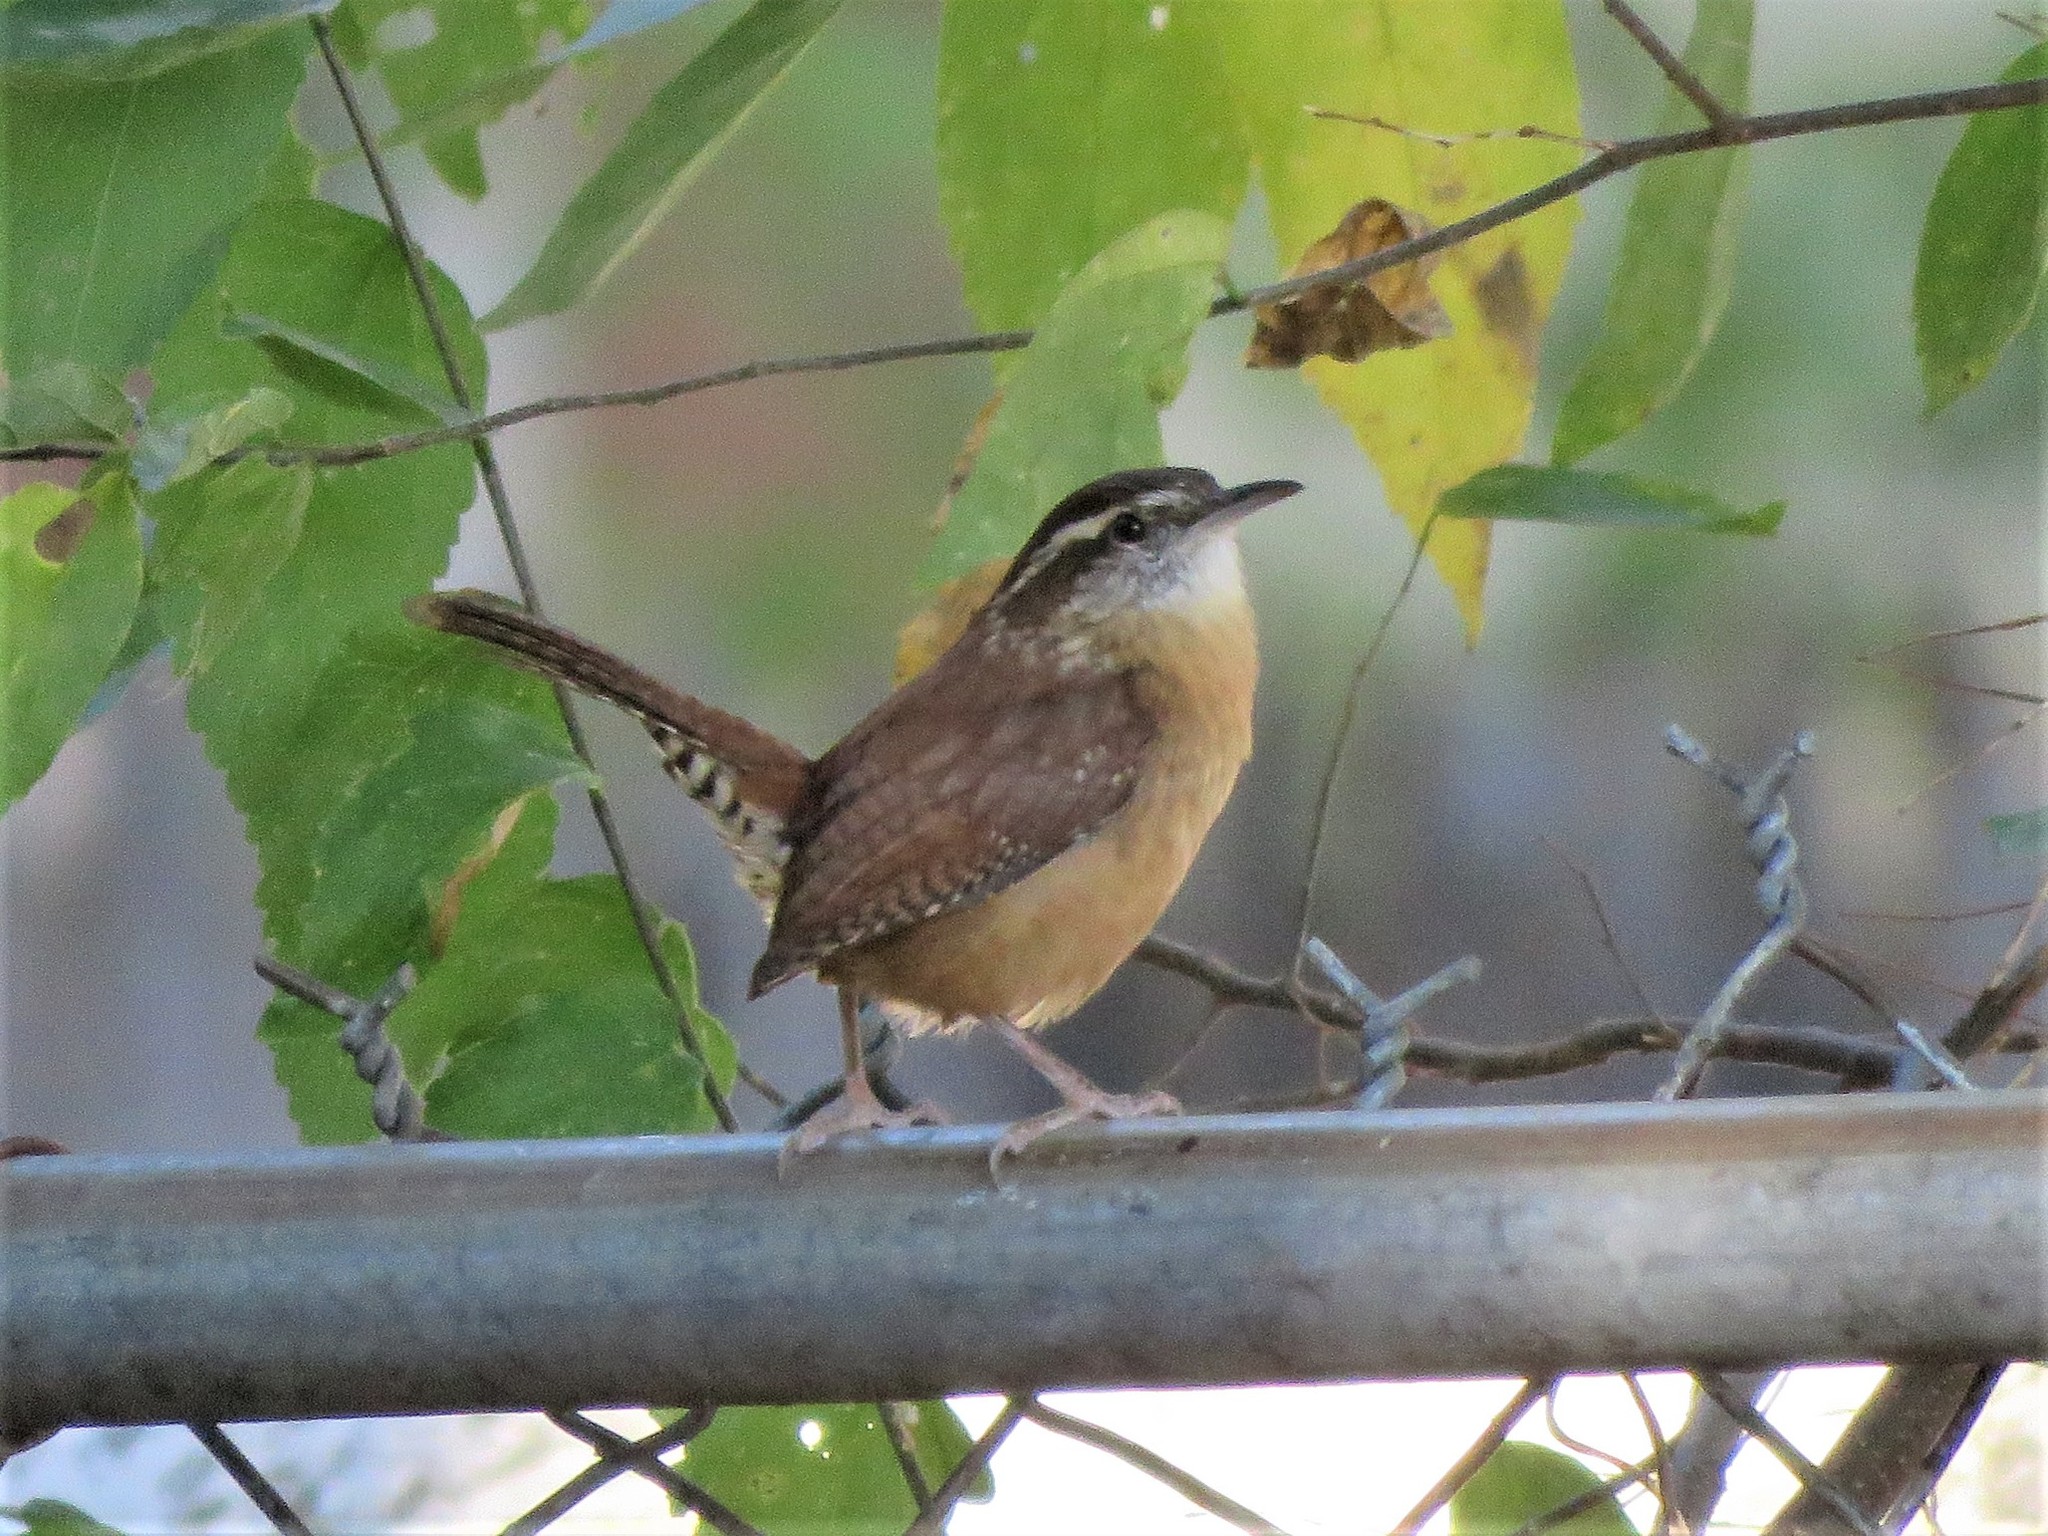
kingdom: Animalia
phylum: Chordata
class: Aves
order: Passeriformes
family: Troglodytidae
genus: Thryothorus
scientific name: Thryothorus ludovicianus
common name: Carolina wren
